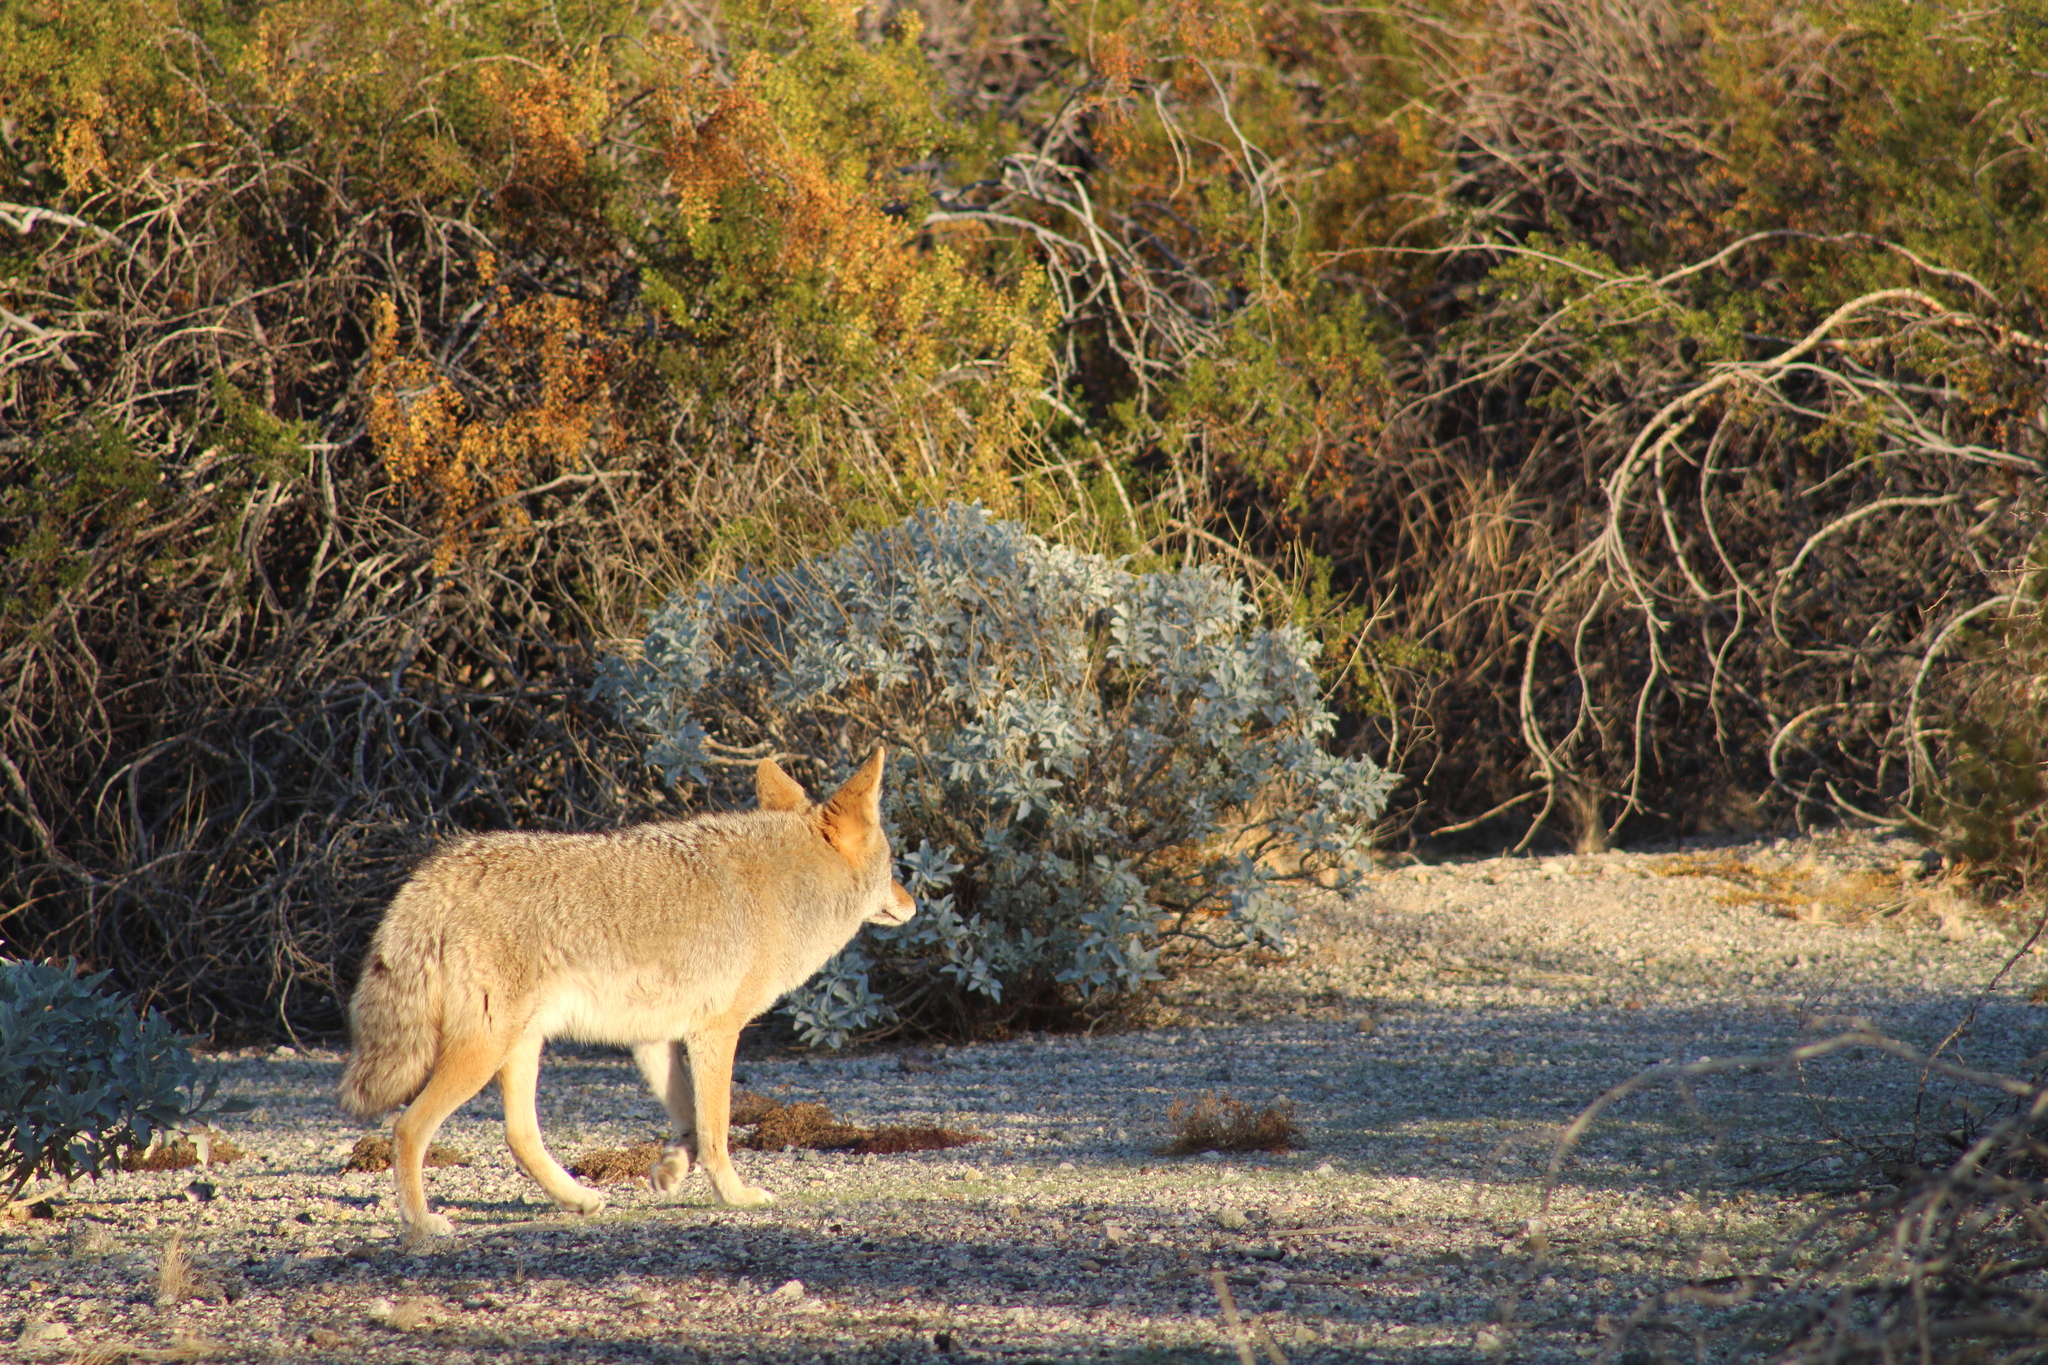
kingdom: Animalia
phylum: Chordata
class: Mammalia
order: Carnivora
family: Canidae
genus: Canis
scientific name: Canis latrans
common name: Coyote
